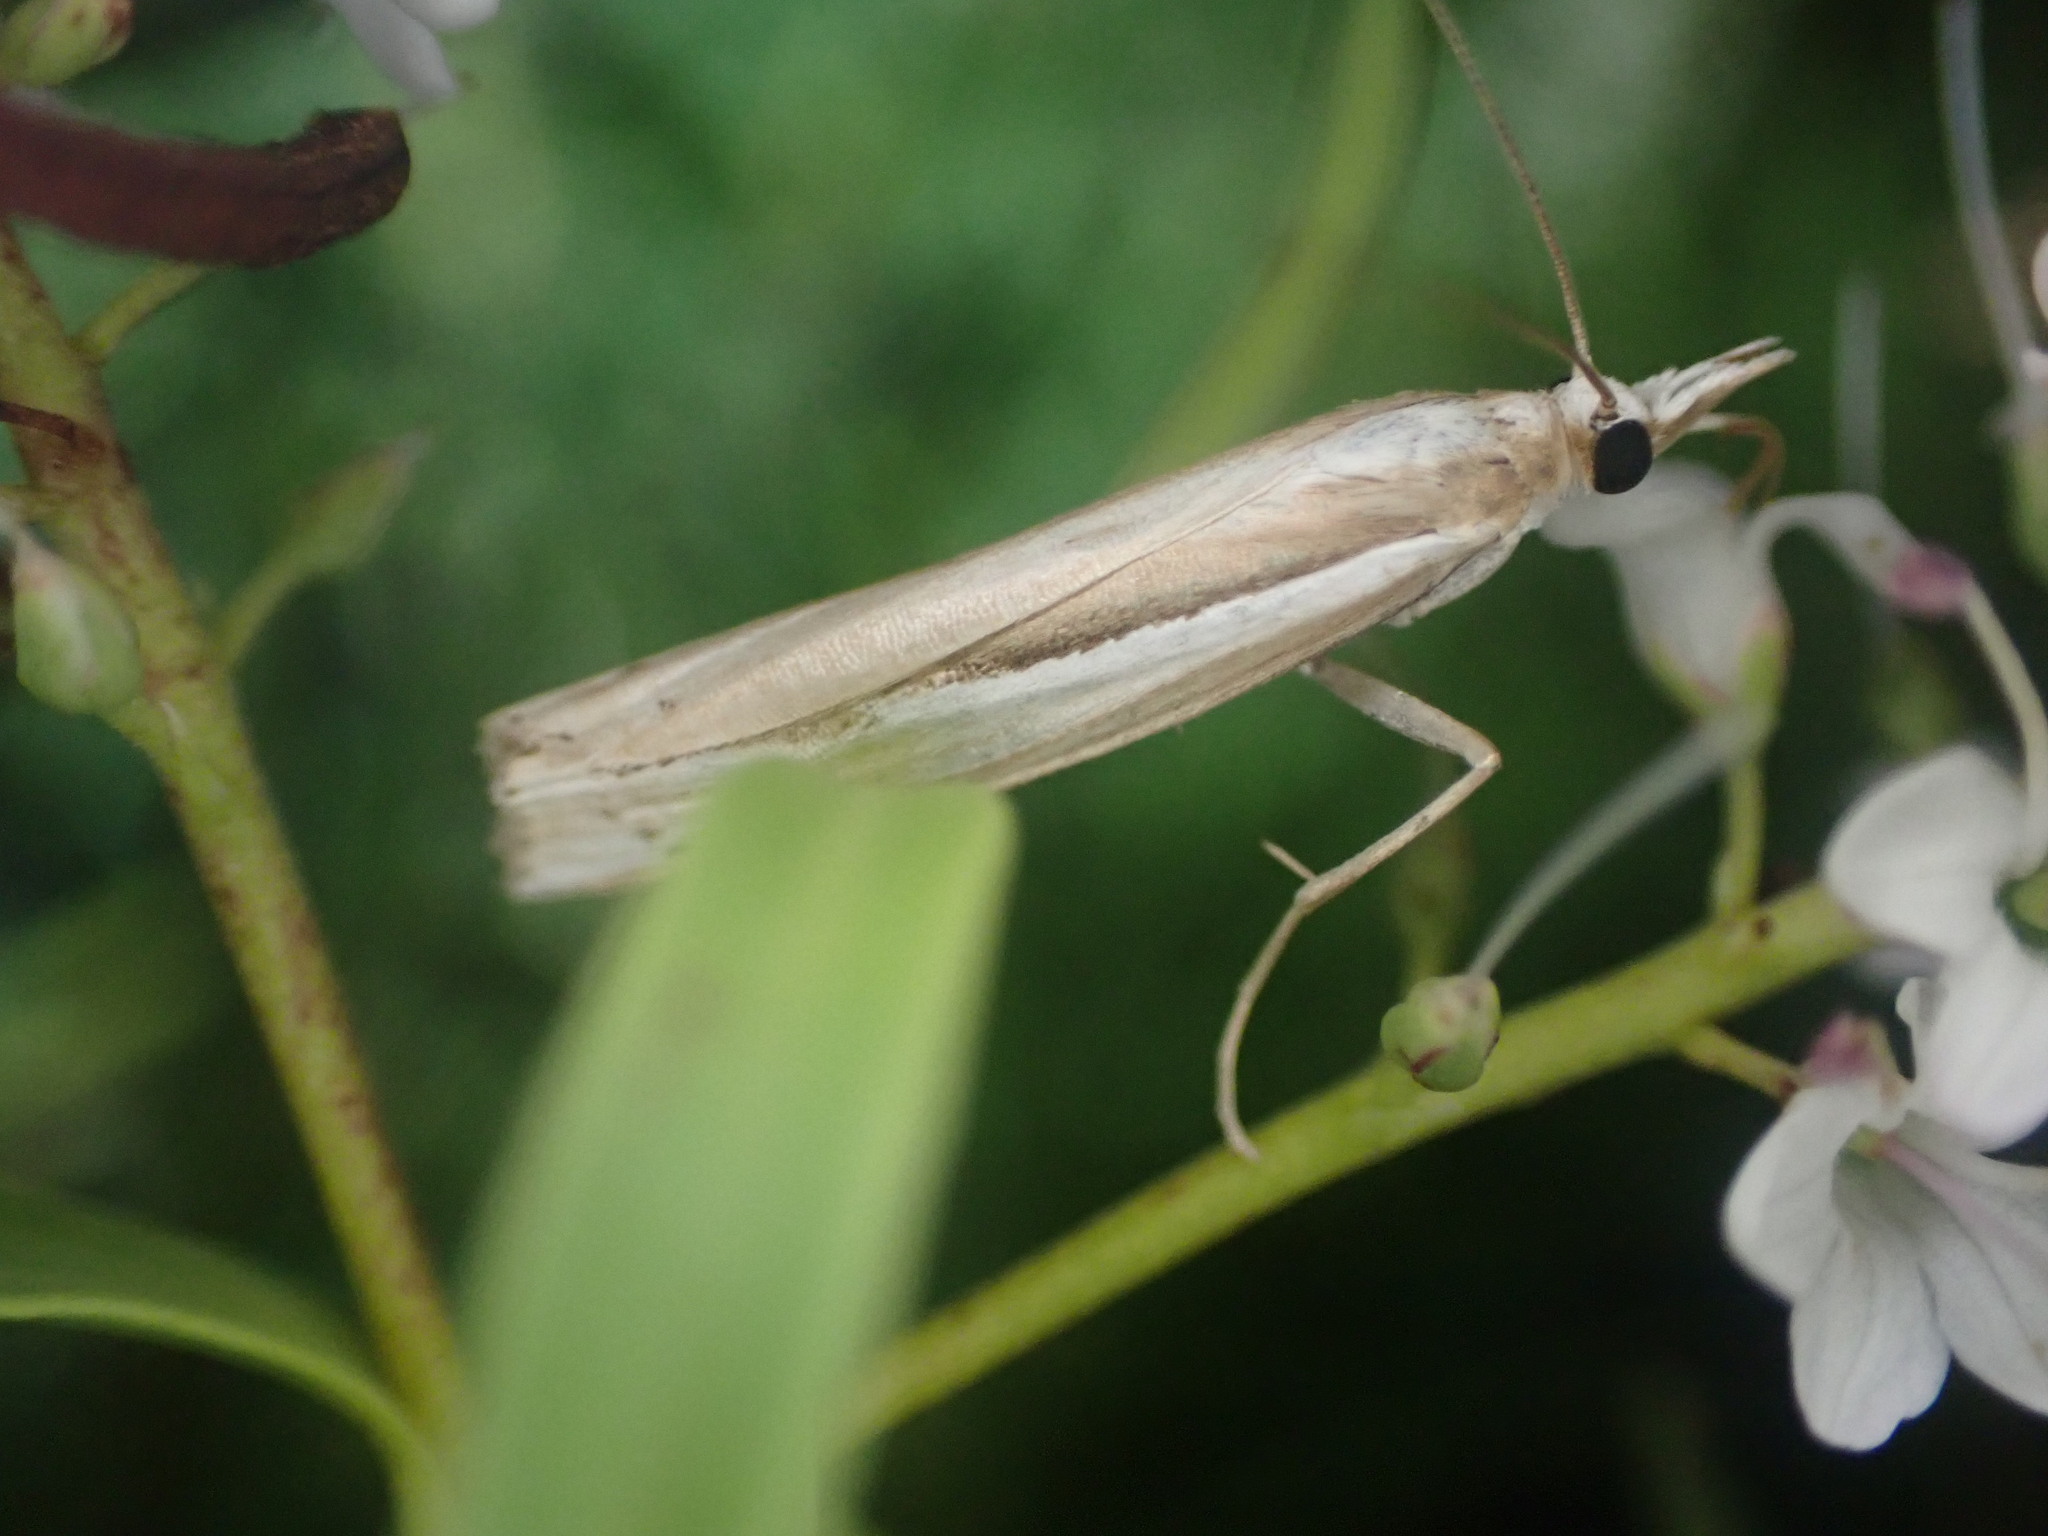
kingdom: Animalia
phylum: Arthropoda
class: Insecta
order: Lepidoptera
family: Crambidae
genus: Orocrambus
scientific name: Orocrambus ramosellus
